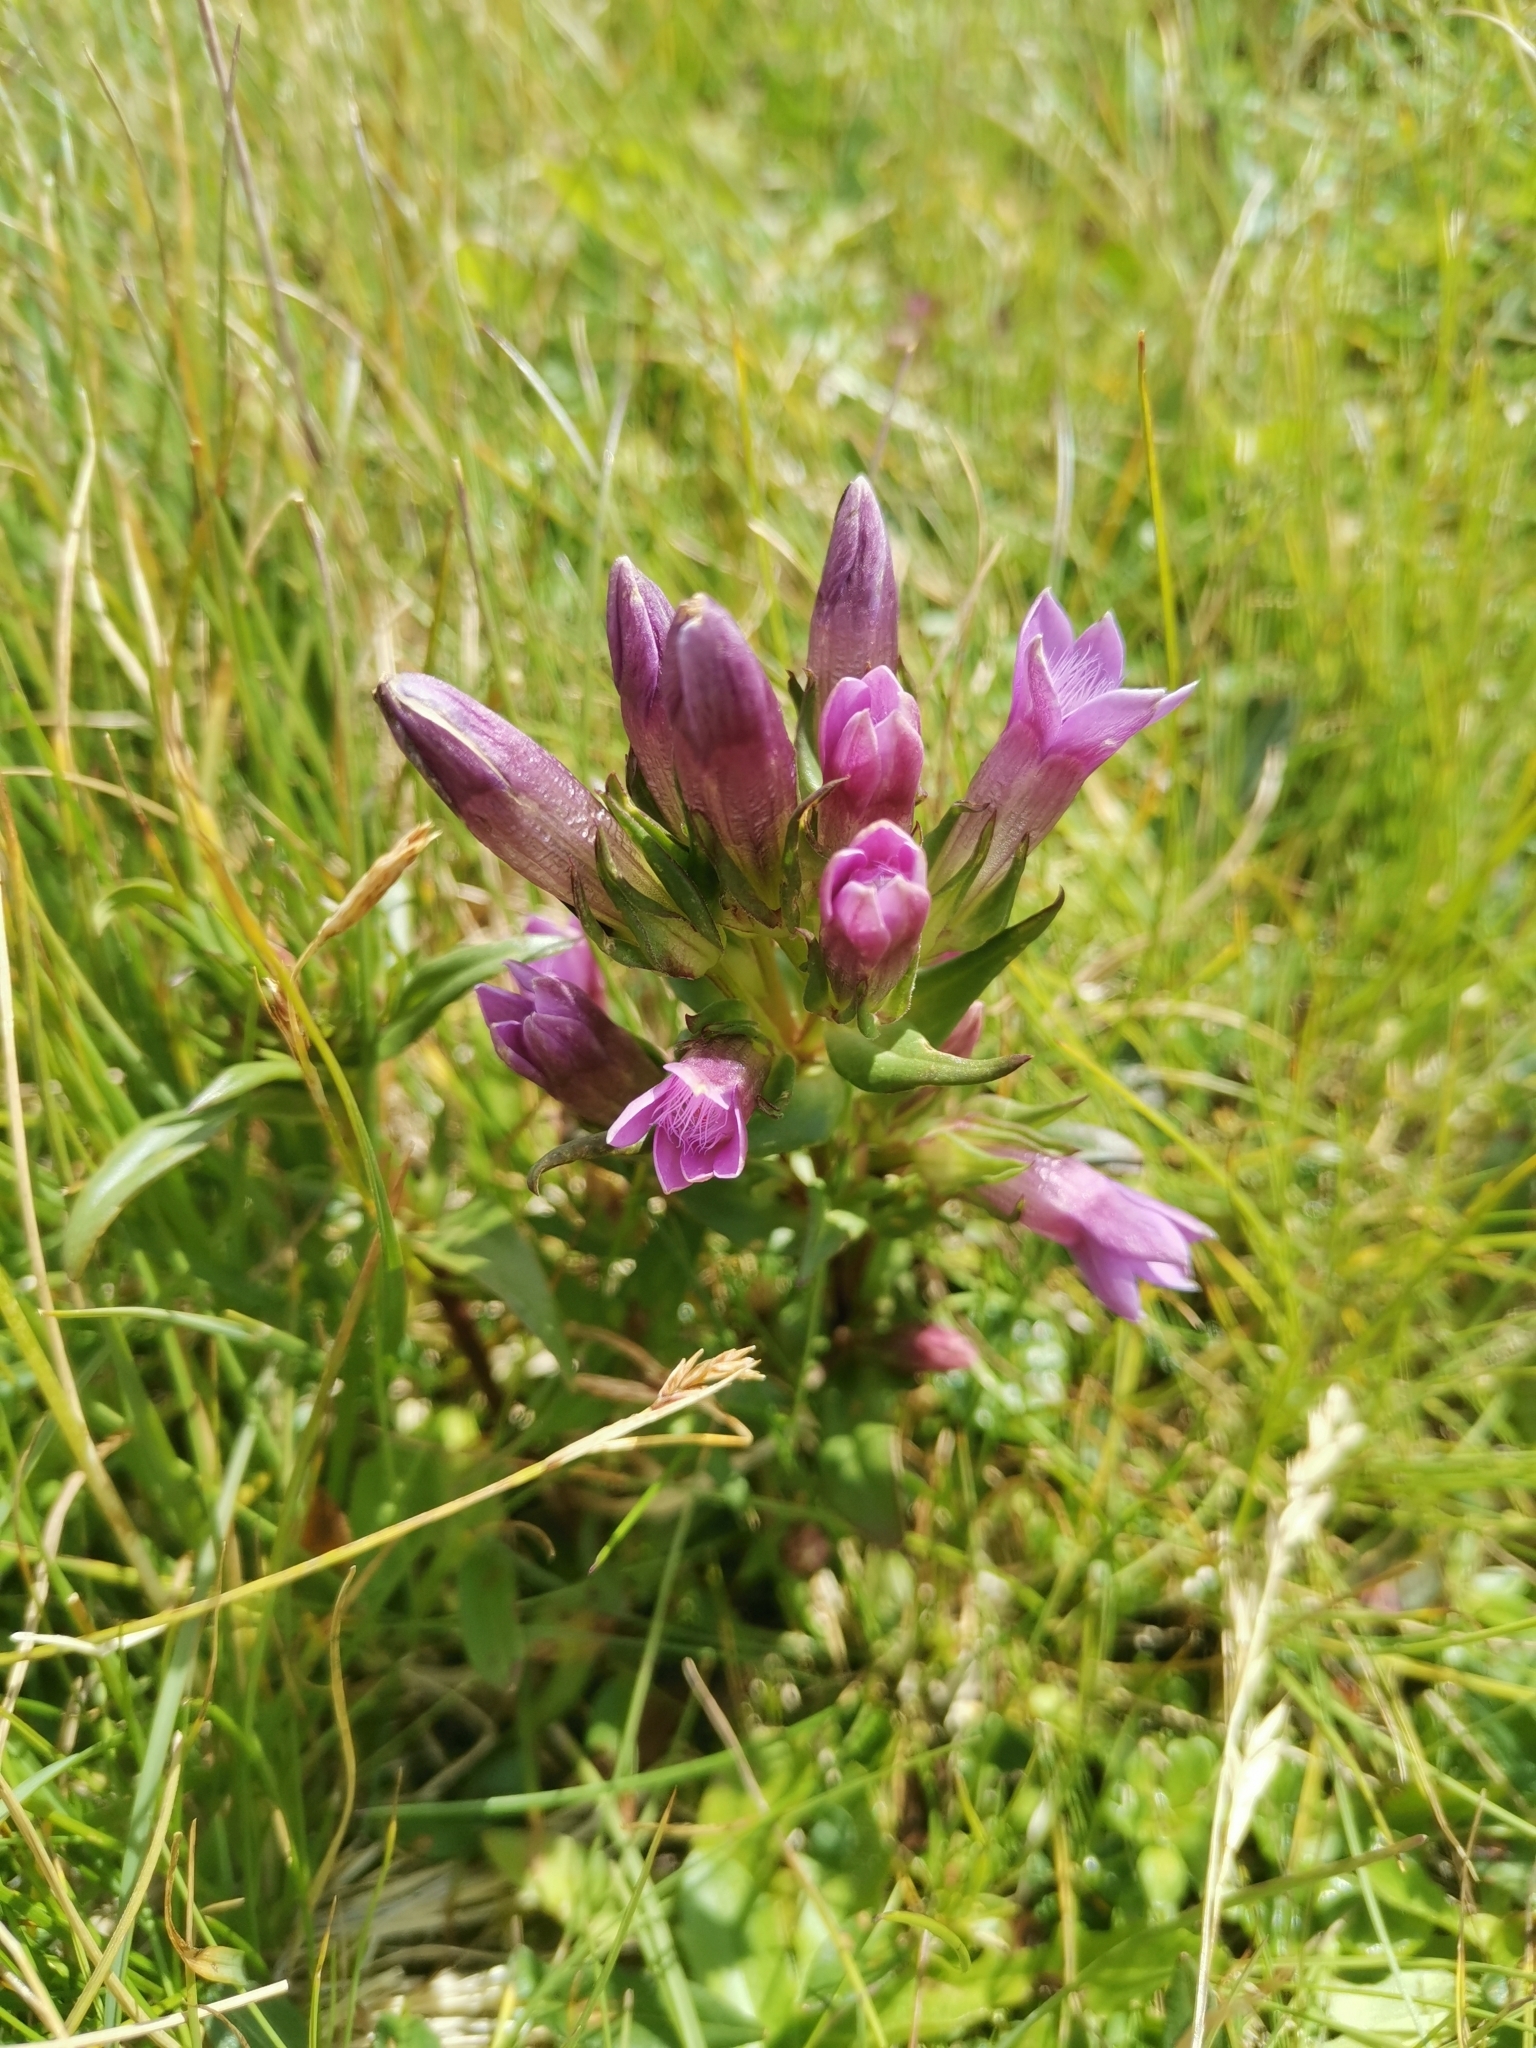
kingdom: Plantae
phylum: Tracheophyta
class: Magnoliopsida
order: Gentianales
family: Gentianaceae
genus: Gentianella
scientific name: Gentianella anisodonta
